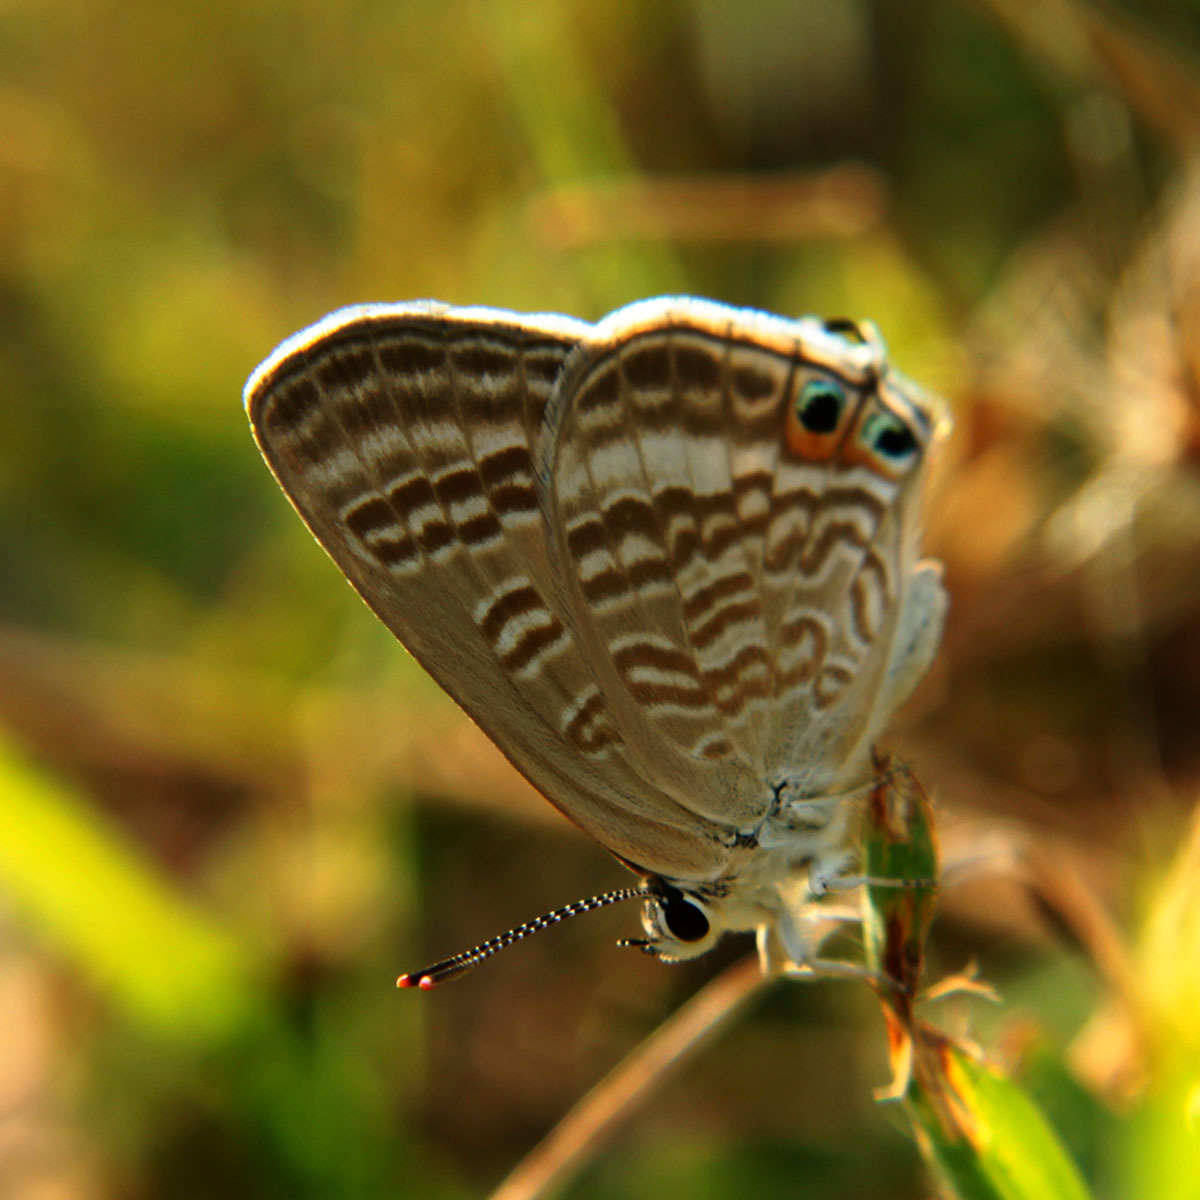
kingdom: Animalia
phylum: Arthropoda
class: Insecta
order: Lepidoptera
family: Lycaenidae
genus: Lampides
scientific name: Lampides boeticus
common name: Long-tailed blue
